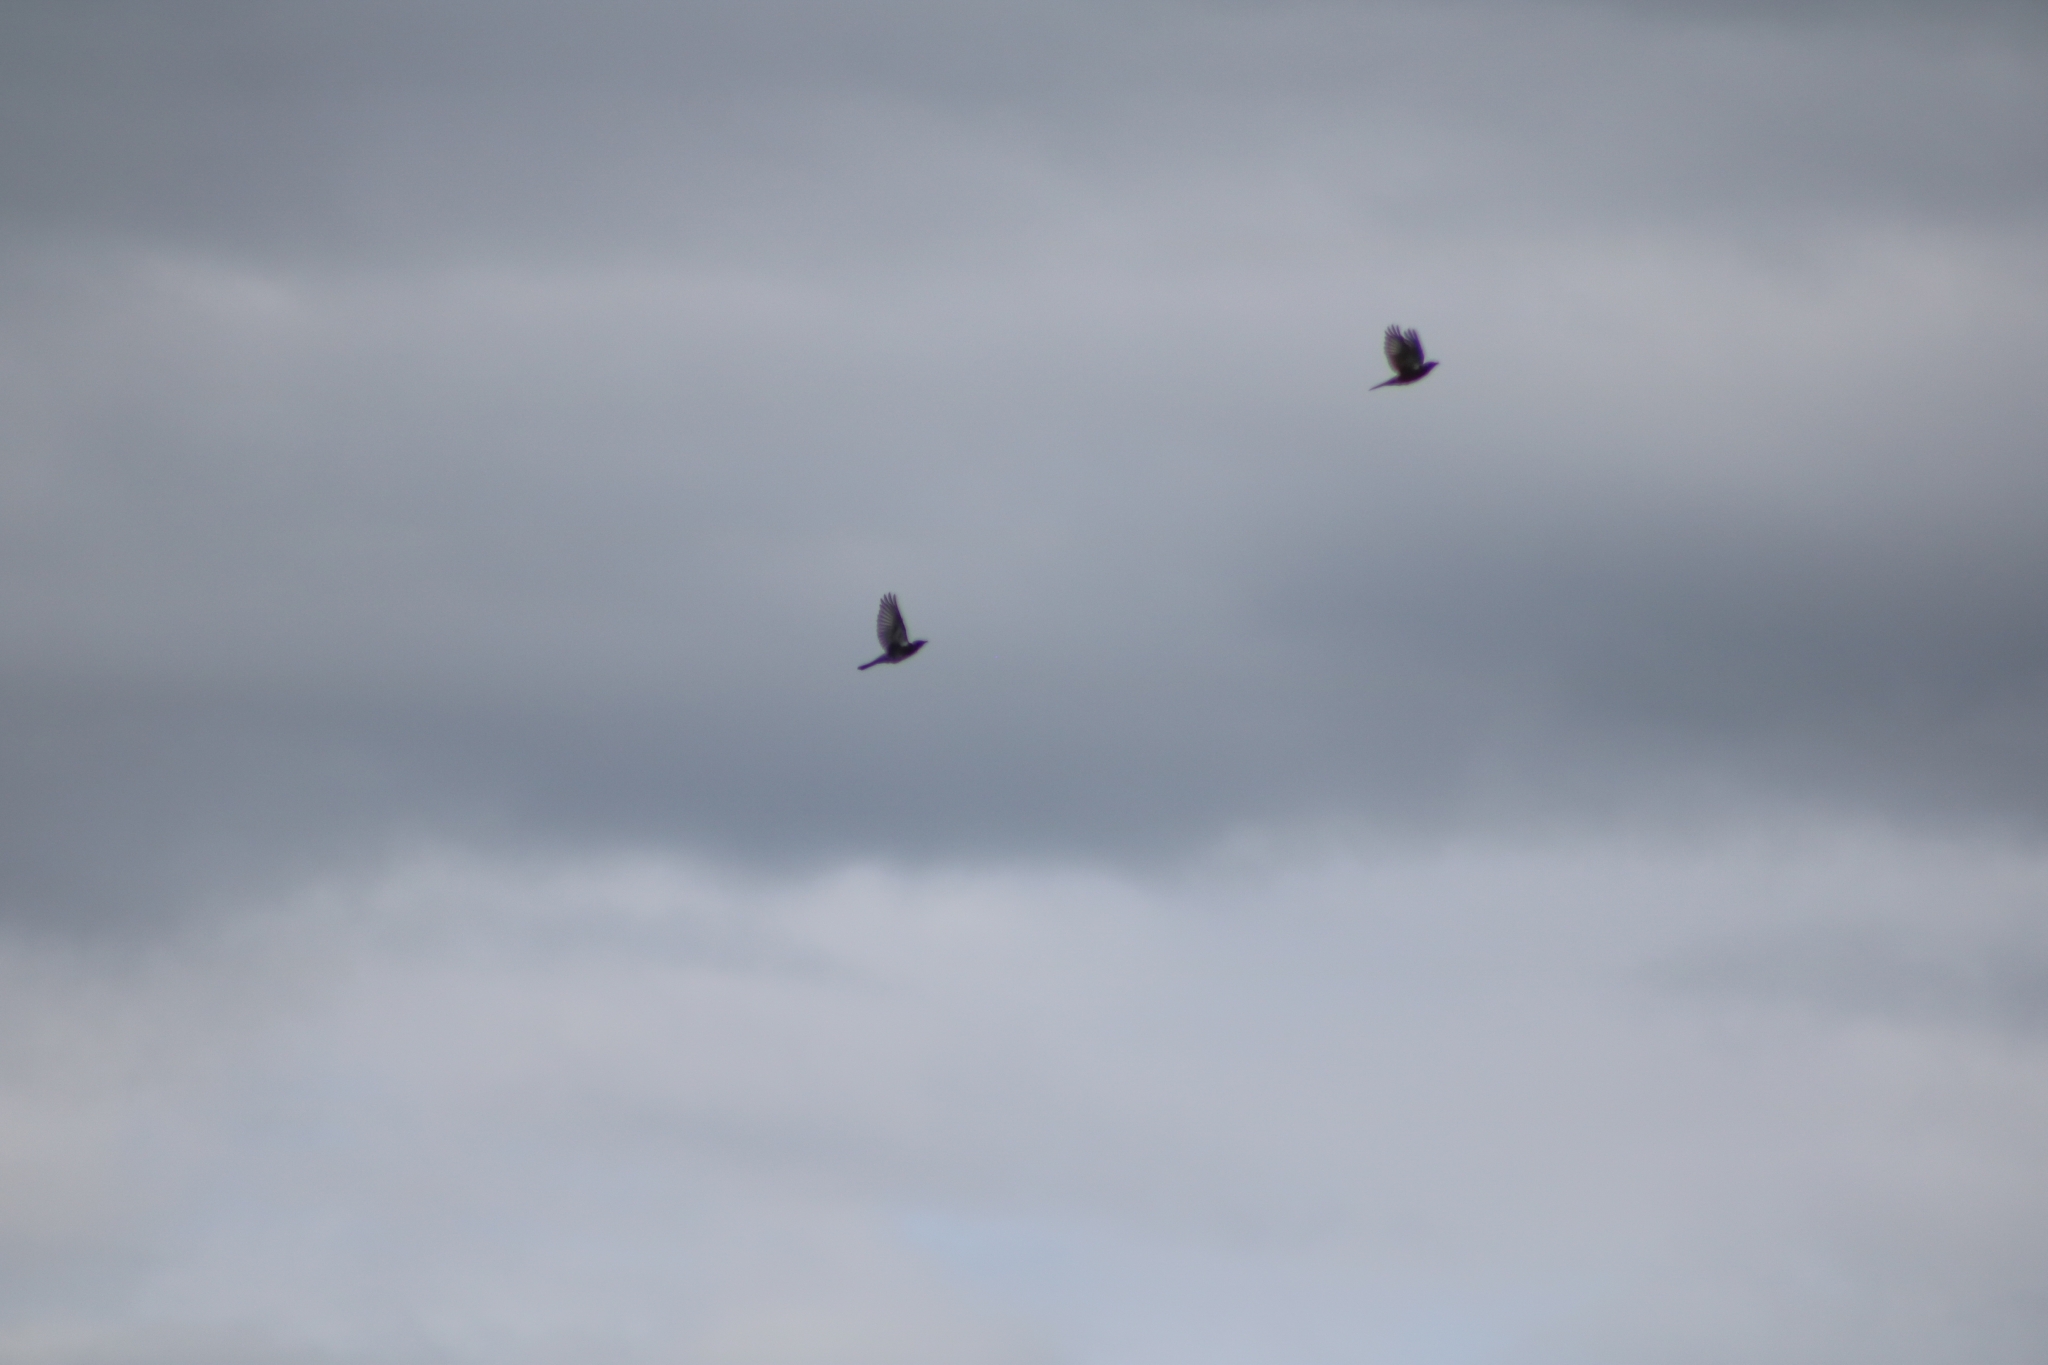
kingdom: Animalia
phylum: Chordata
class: Aves
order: Passeriformes
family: Turdidae
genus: Turdus
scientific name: Turdus pilaris
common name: Fieldfare
